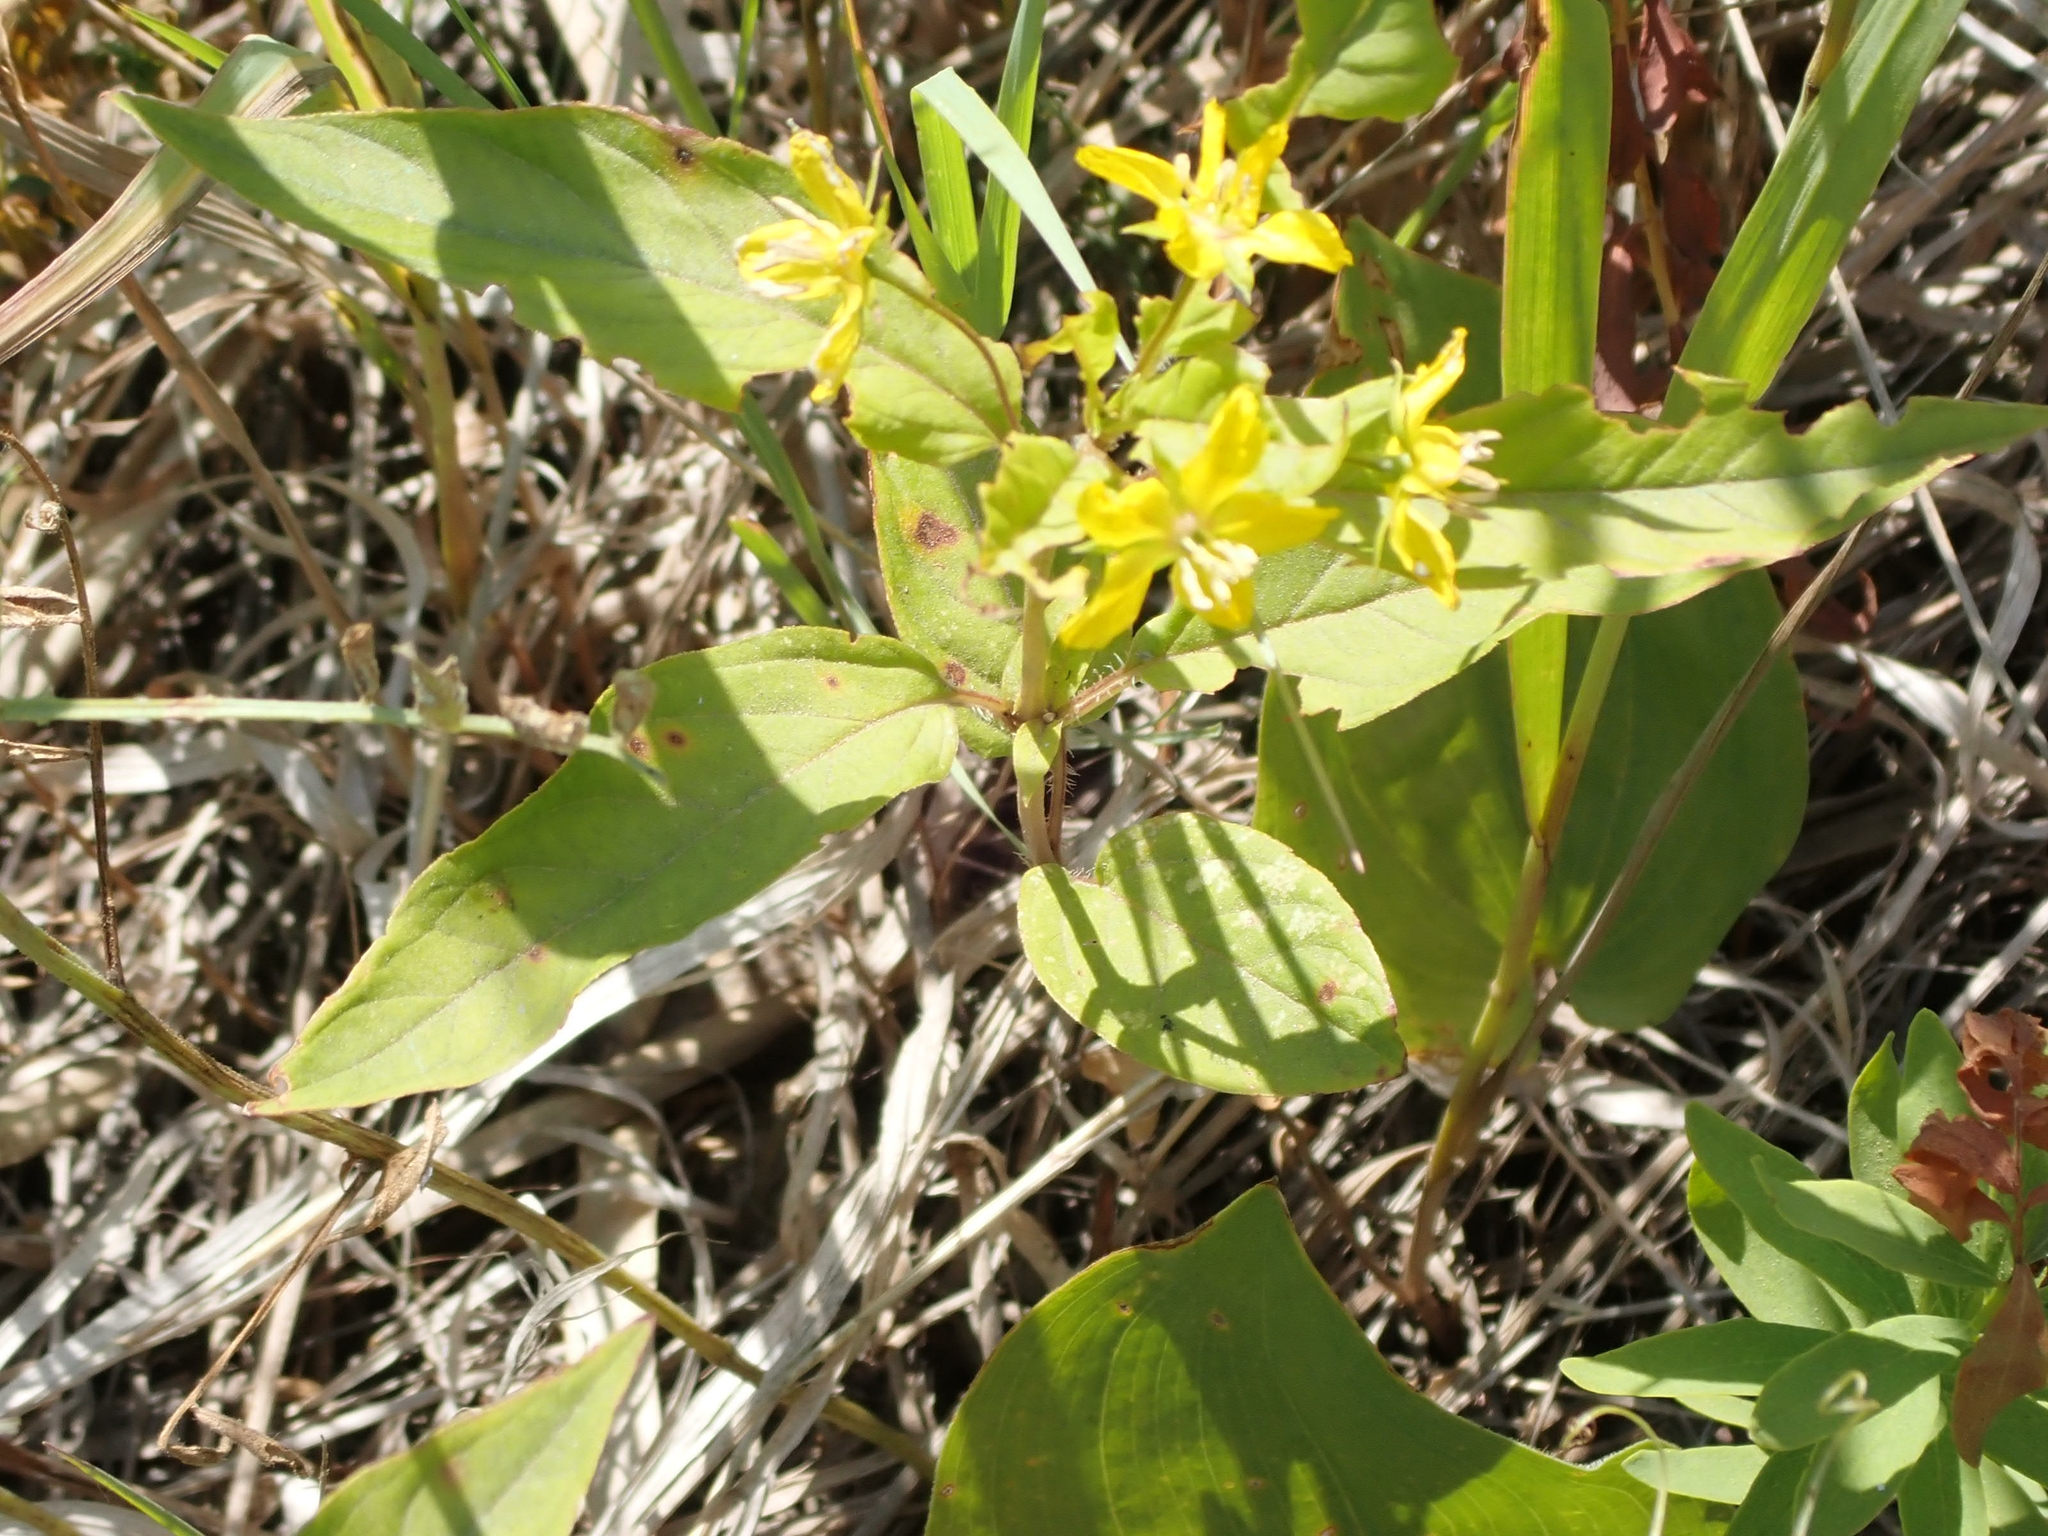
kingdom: Plantae
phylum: Tracheophyta
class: Magnoliopsida
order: Ericales
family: Primulaceae
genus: Lysimachia
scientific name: Lysimachia ciliata
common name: Fringed loosestrife
